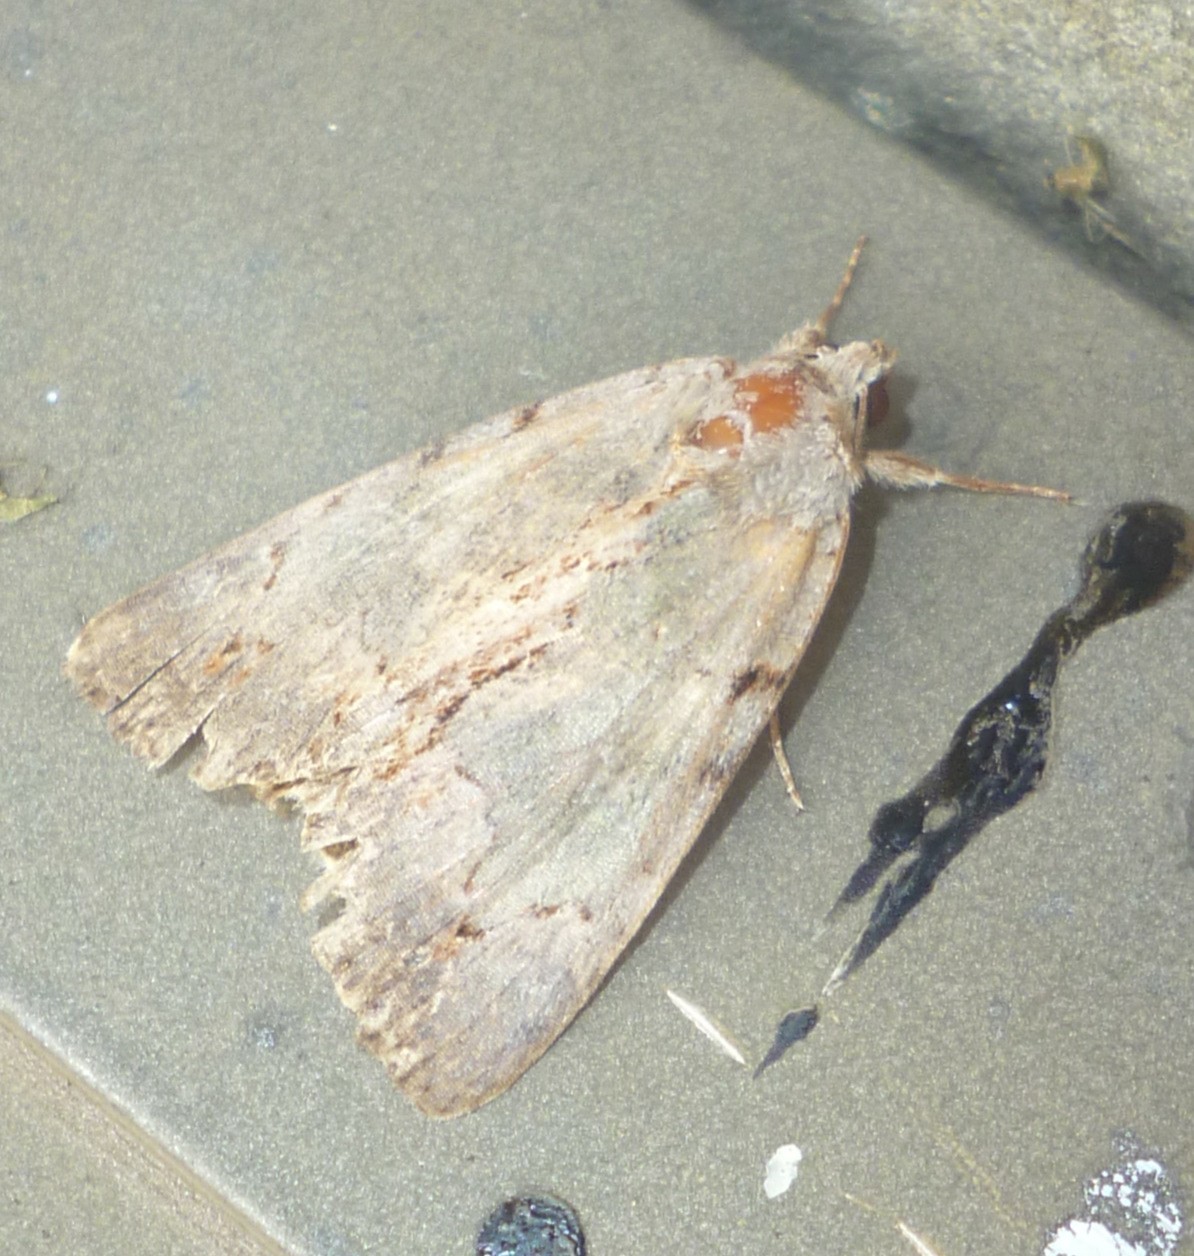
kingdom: Animalia
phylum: Arthropoda
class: Insecta
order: Lepidoptera
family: Erebidae
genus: Catocala
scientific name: Catocala grynea
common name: Woody underwing
